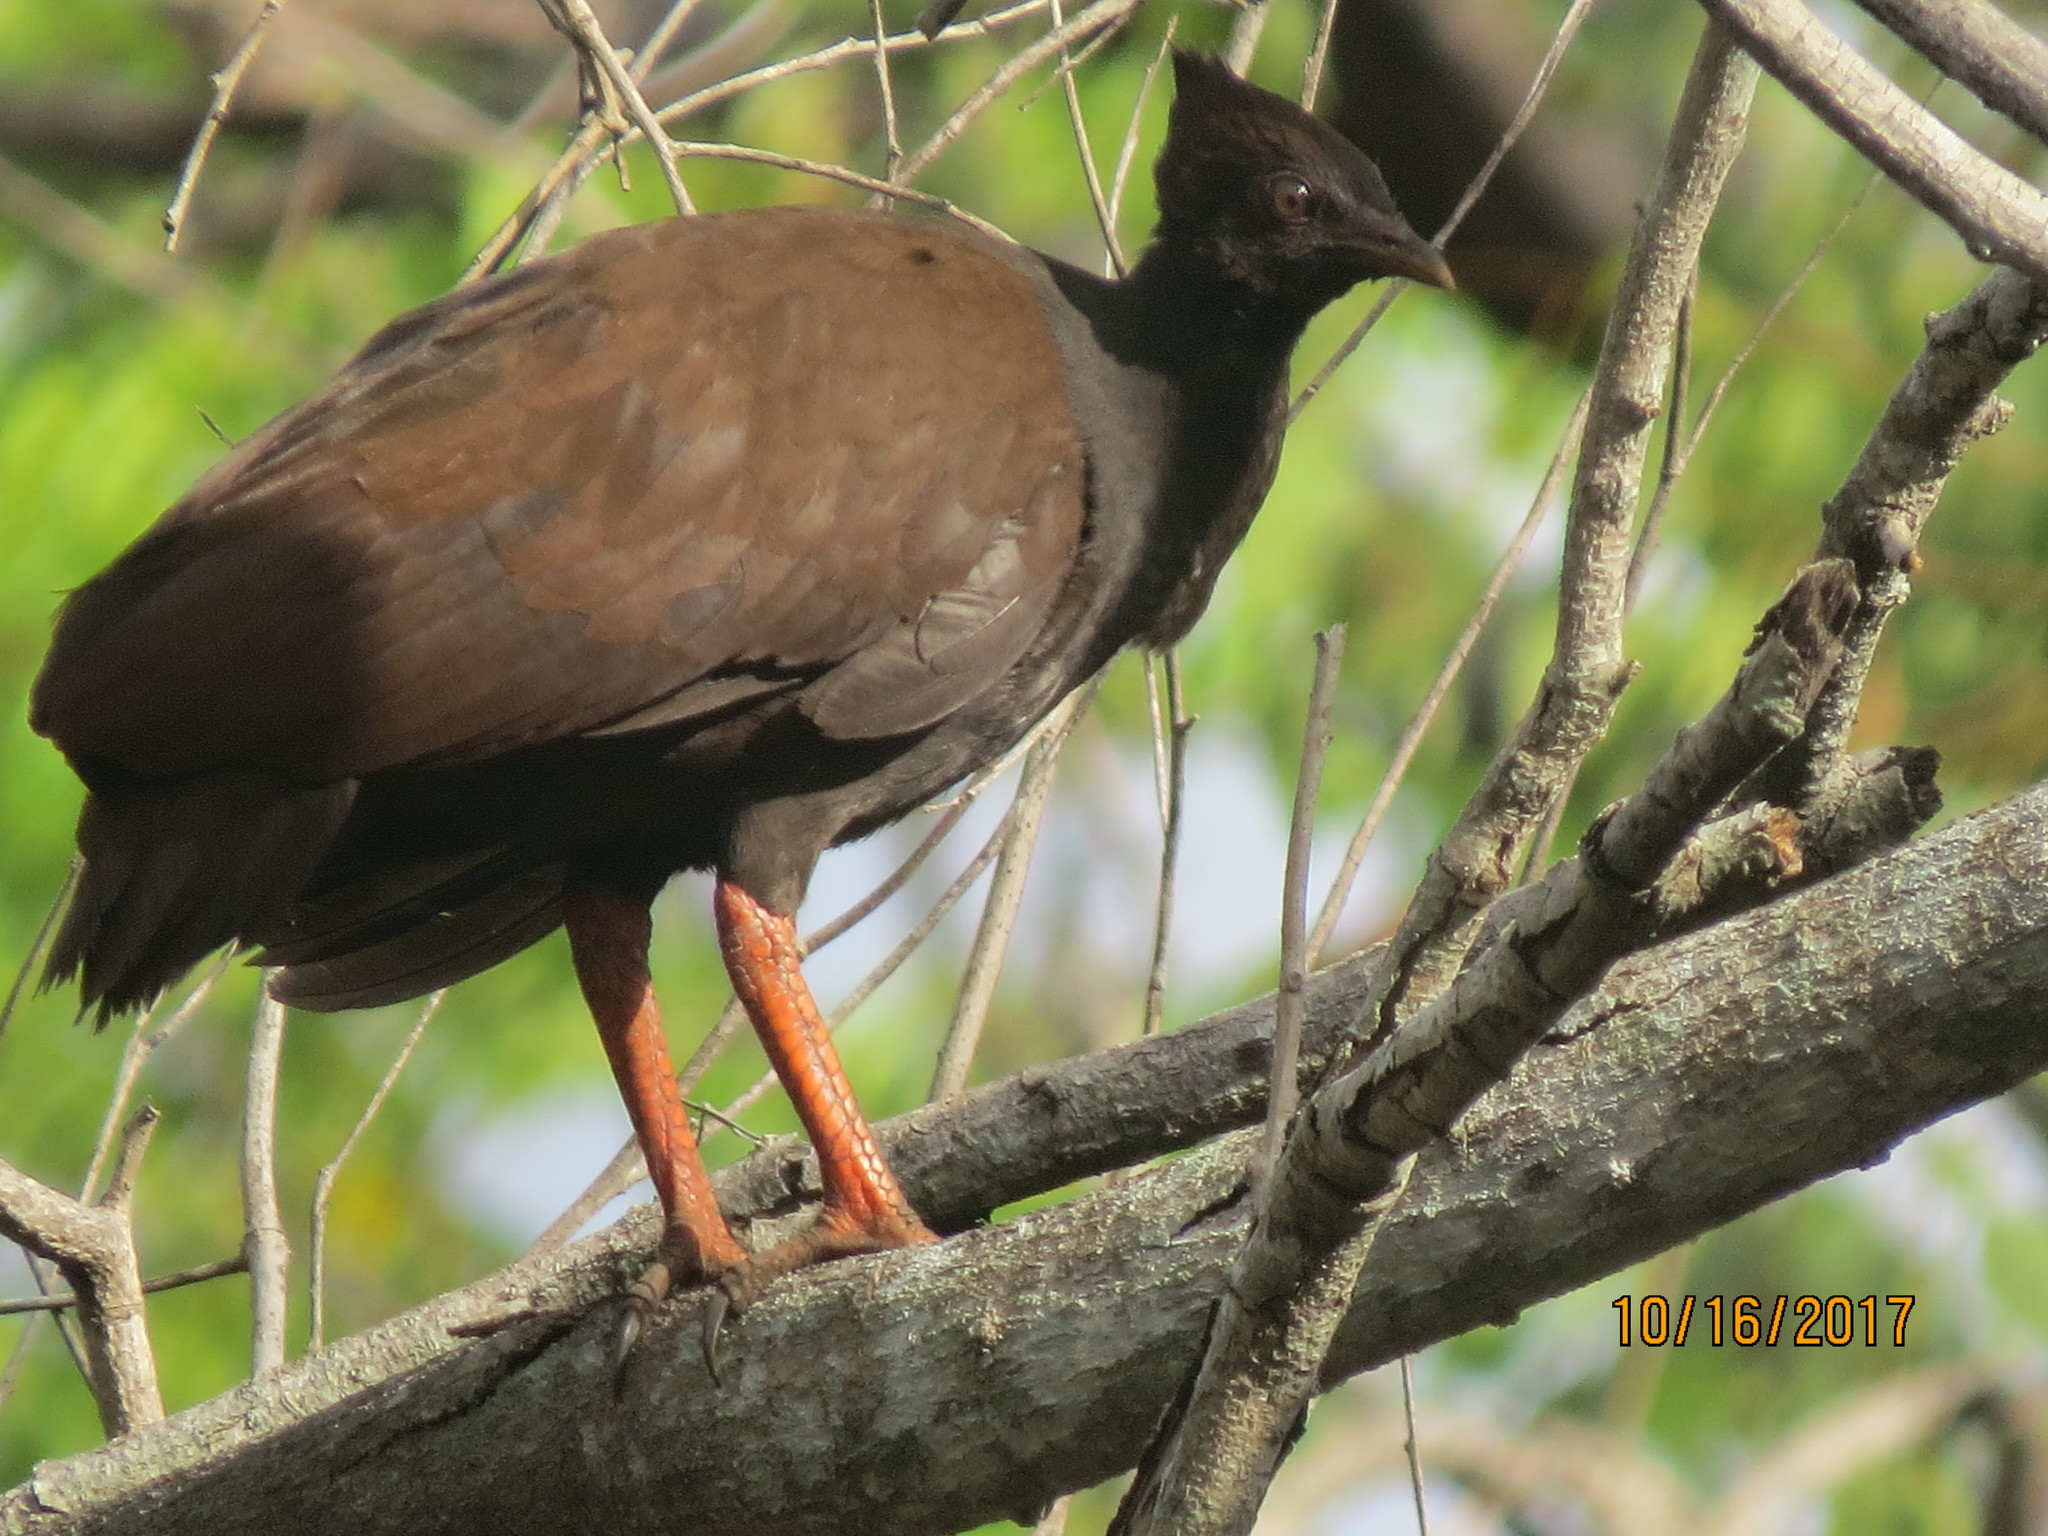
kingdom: Animalia
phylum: Chordata
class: Aves
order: Galliformes
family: Megapodiidae
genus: Megapodius
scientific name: Megapodius reinwardt
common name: Orange-footed scrubfowl
